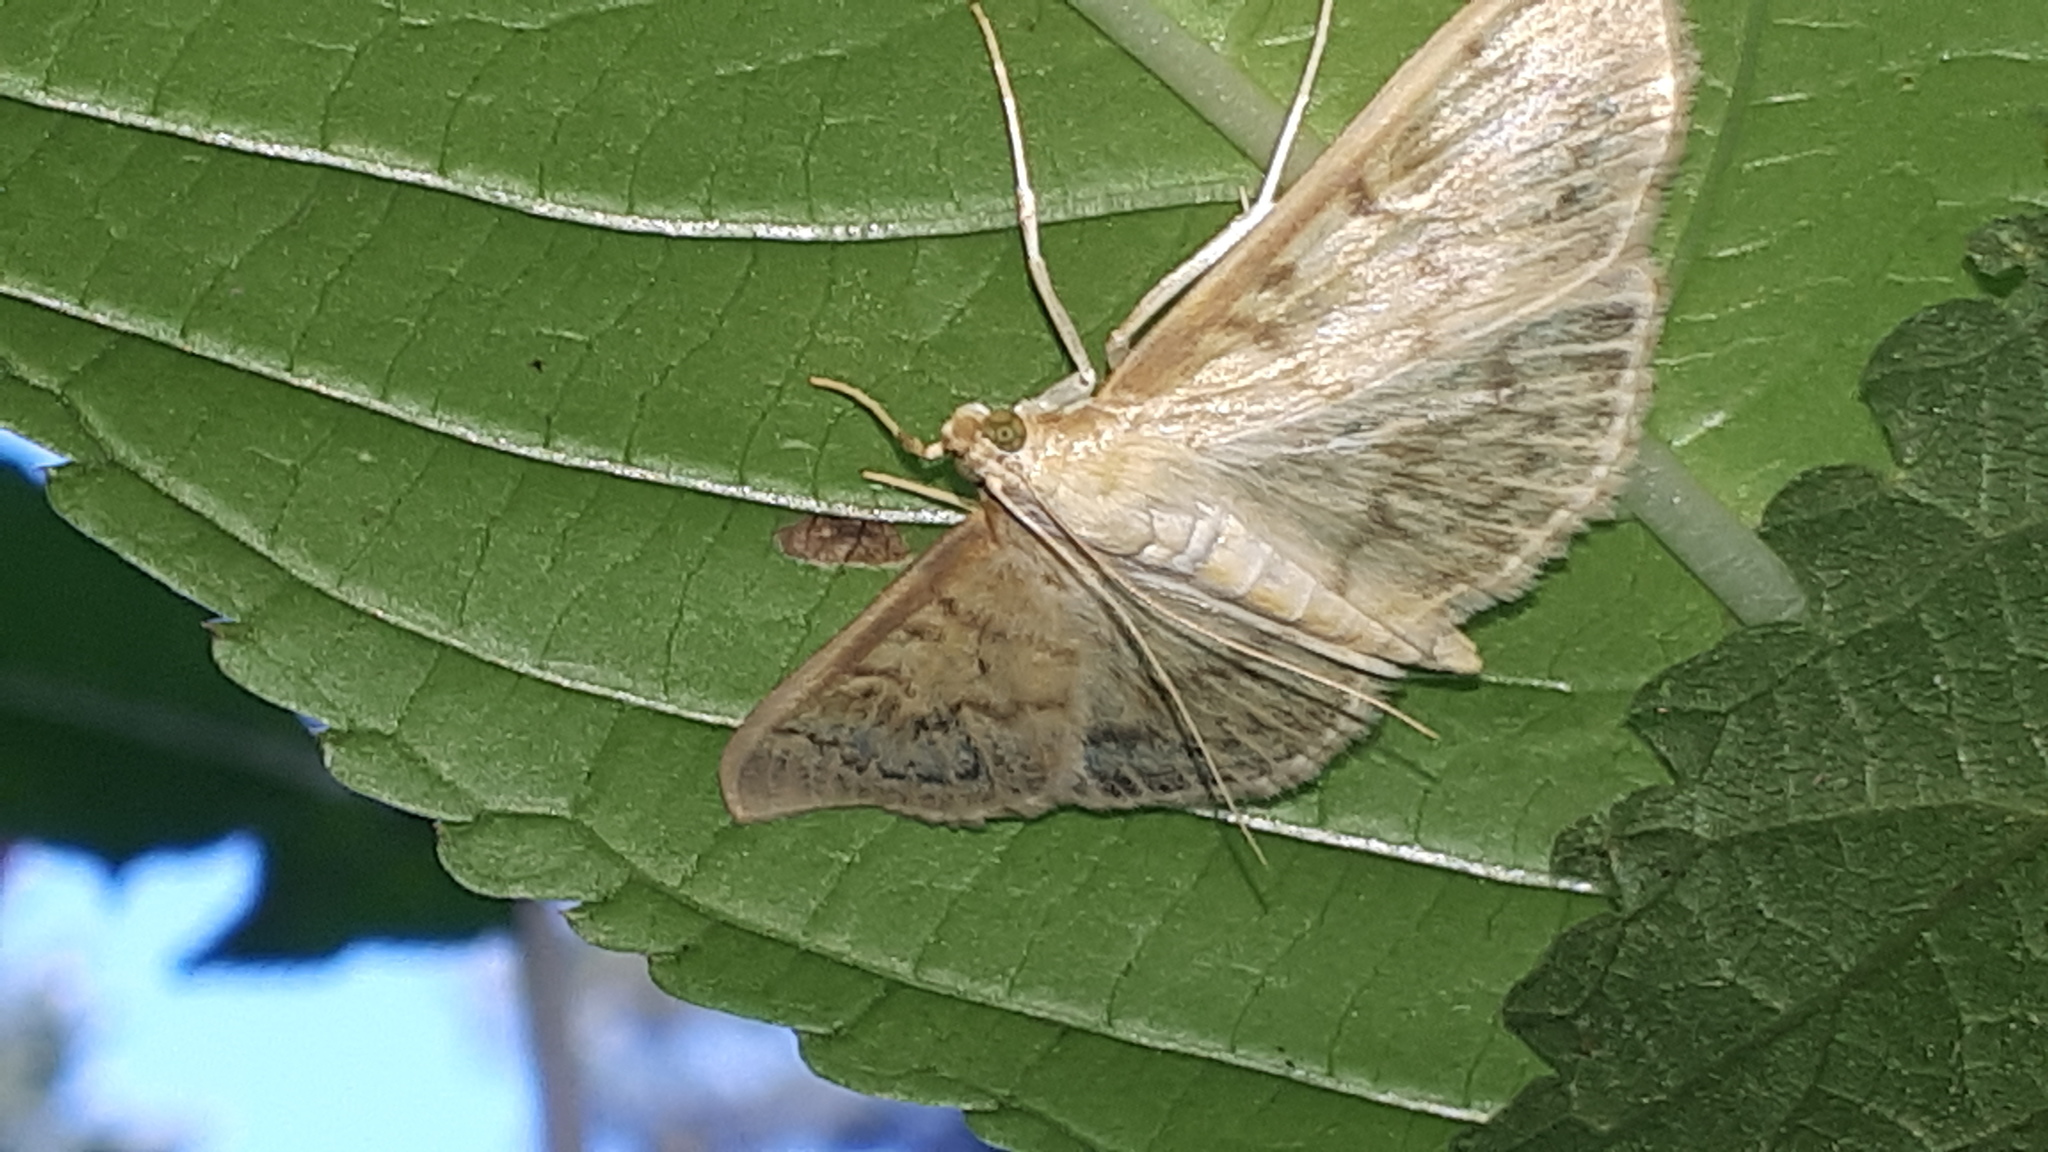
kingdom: Animalia
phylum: Arthropoda
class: Insecta
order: Lepidoptera
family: Crambidae
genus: Patania
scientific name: Patania ruralis
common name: Mother of pearl
